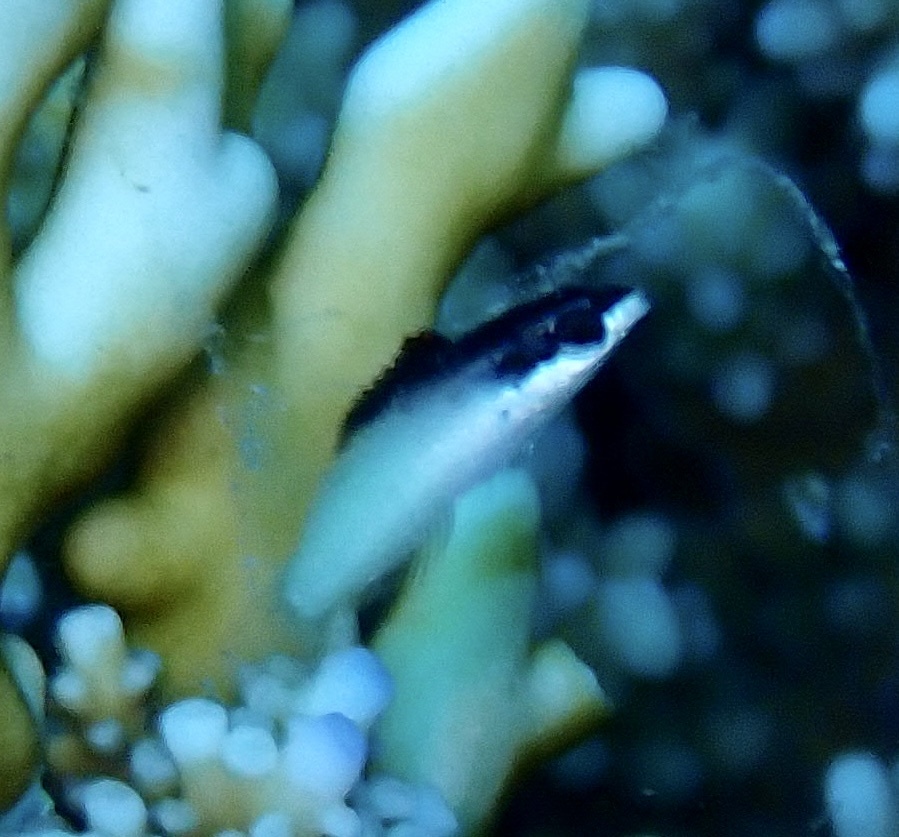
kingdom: Animalia
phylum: Chordata
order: Perciformes
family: Labridae
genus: Gomphosus
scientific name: Gomphosus klunzingeri
